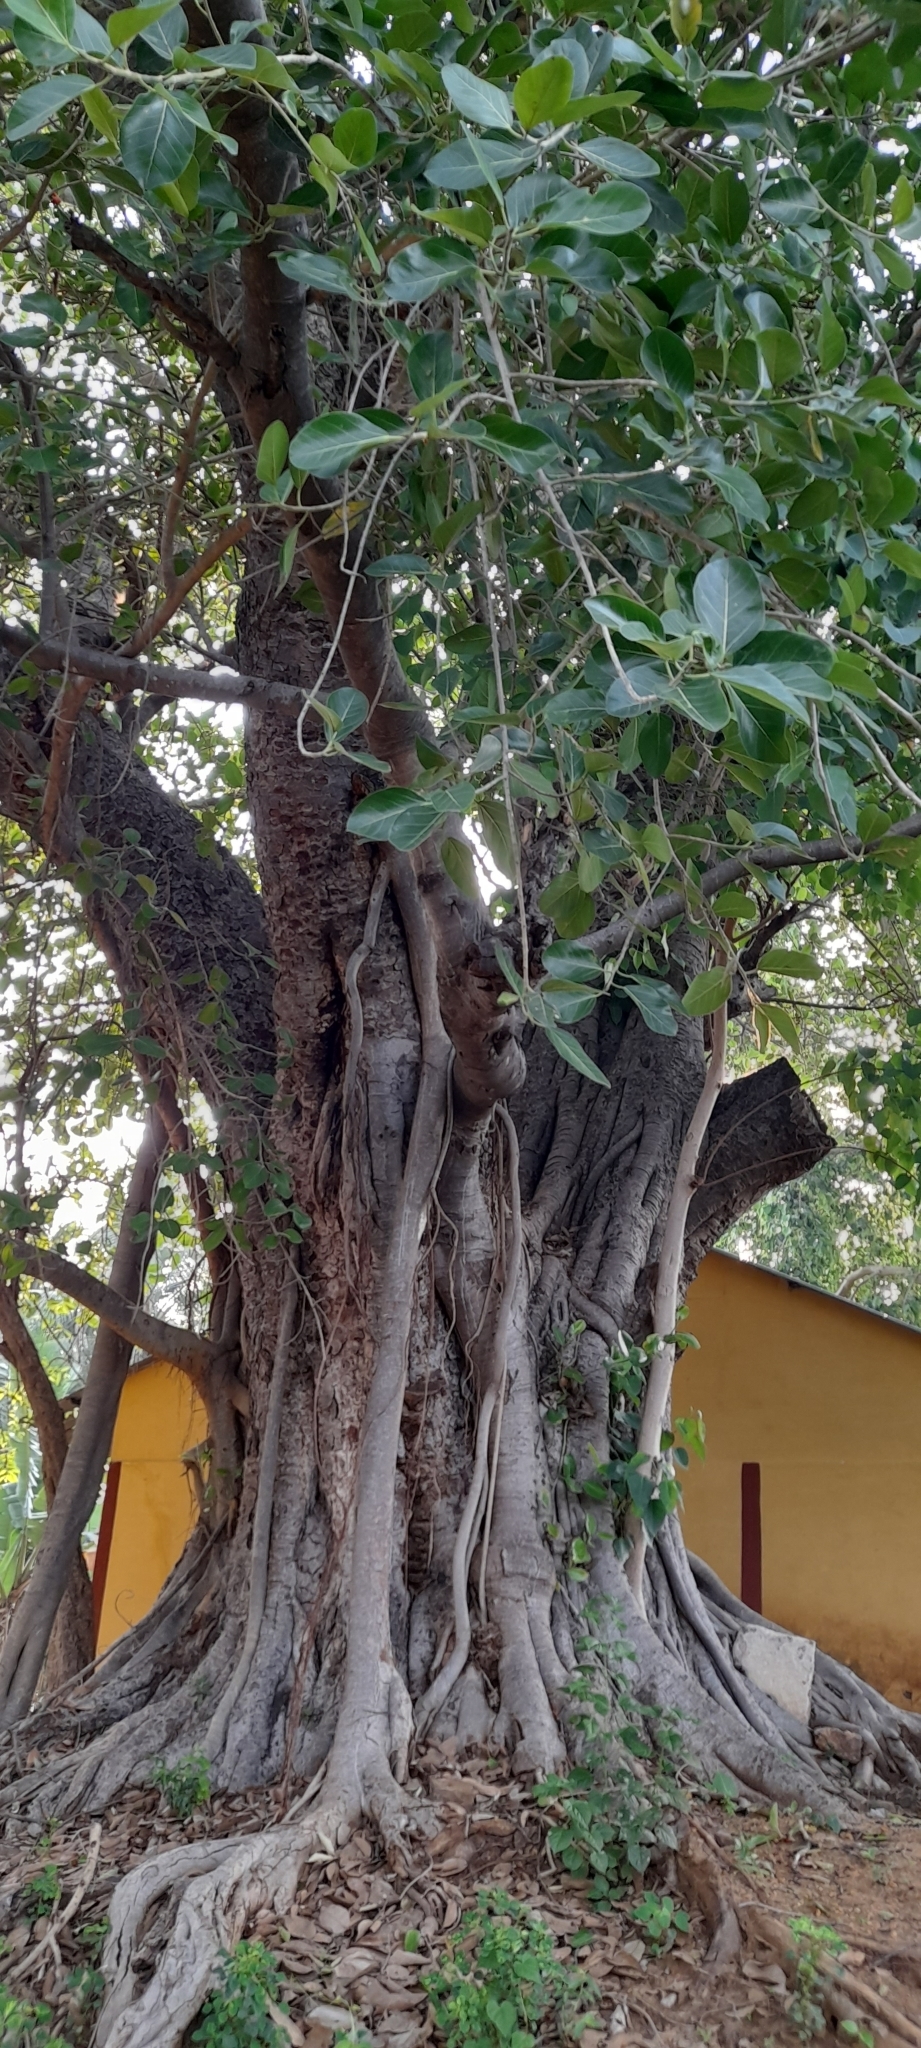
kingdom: Plantae
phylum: Tracheophyta
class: Magnoliopsida
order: Rosales
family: Moraceae
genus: Ficus
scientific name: Ficus benghalensis
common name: Indian banyan
